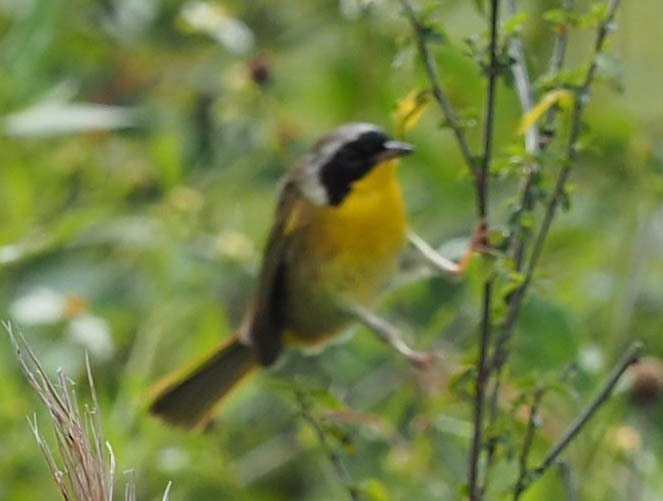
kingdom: Animalia
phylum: Chordata
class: Aves
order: Passeriformes
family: Parulidae
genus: Geothlypis
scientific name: Geothlypis trichas
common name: Common yellowthroat
